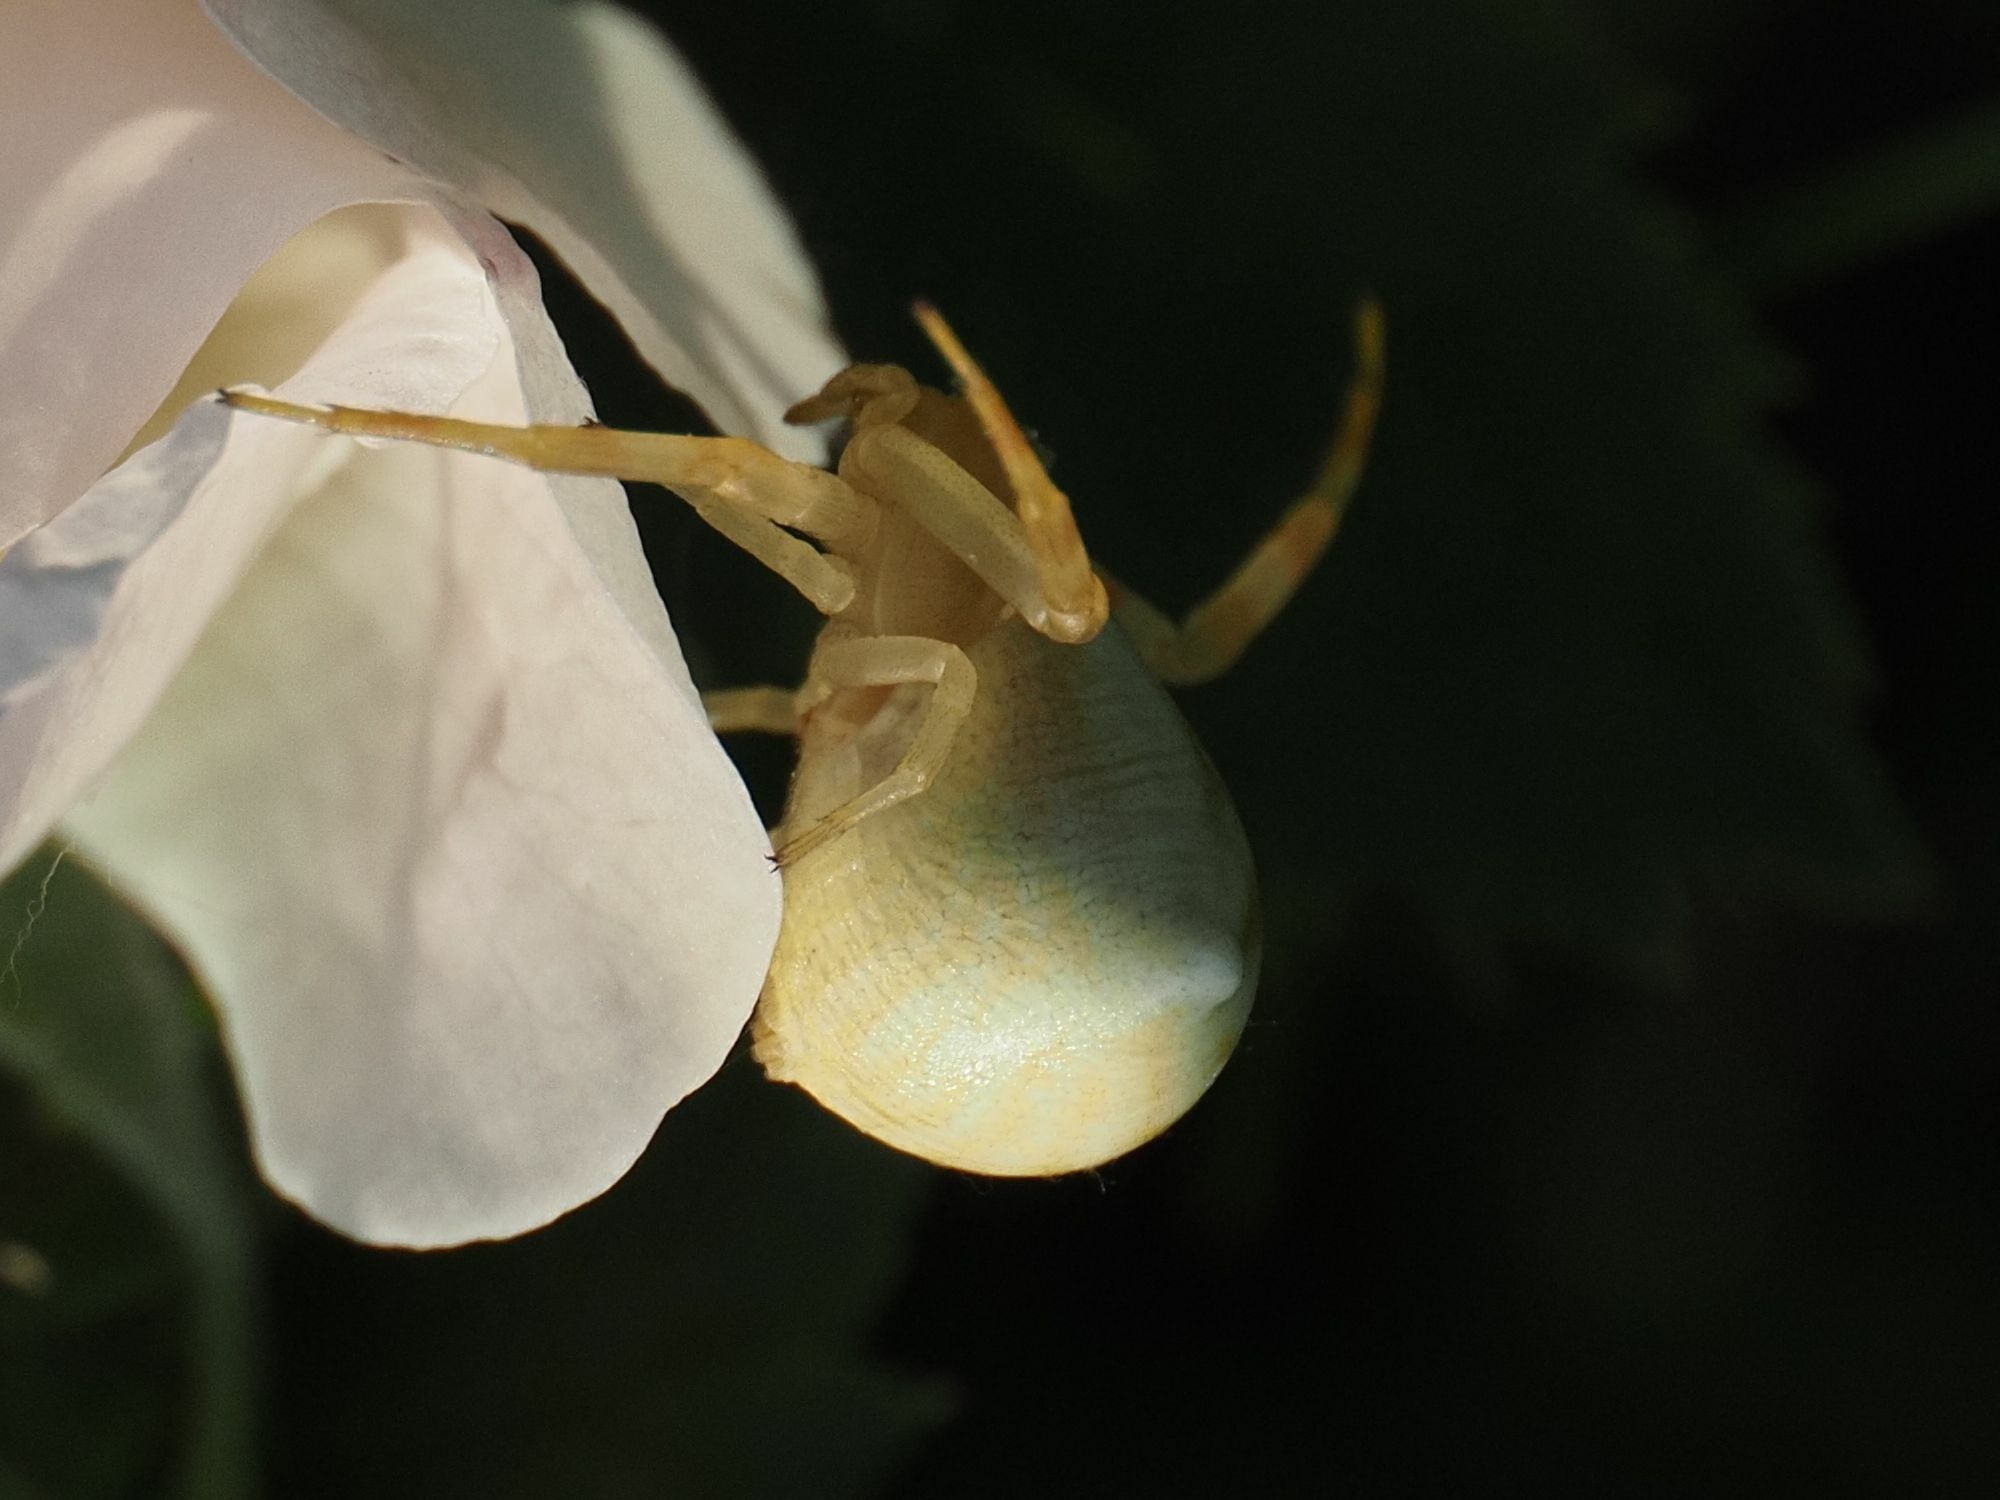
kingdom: Animalia
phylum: Arthropoda
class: Arachnida
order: Araneae
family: Thomisidae
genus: Thomisus
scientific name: Thomisus onustus
